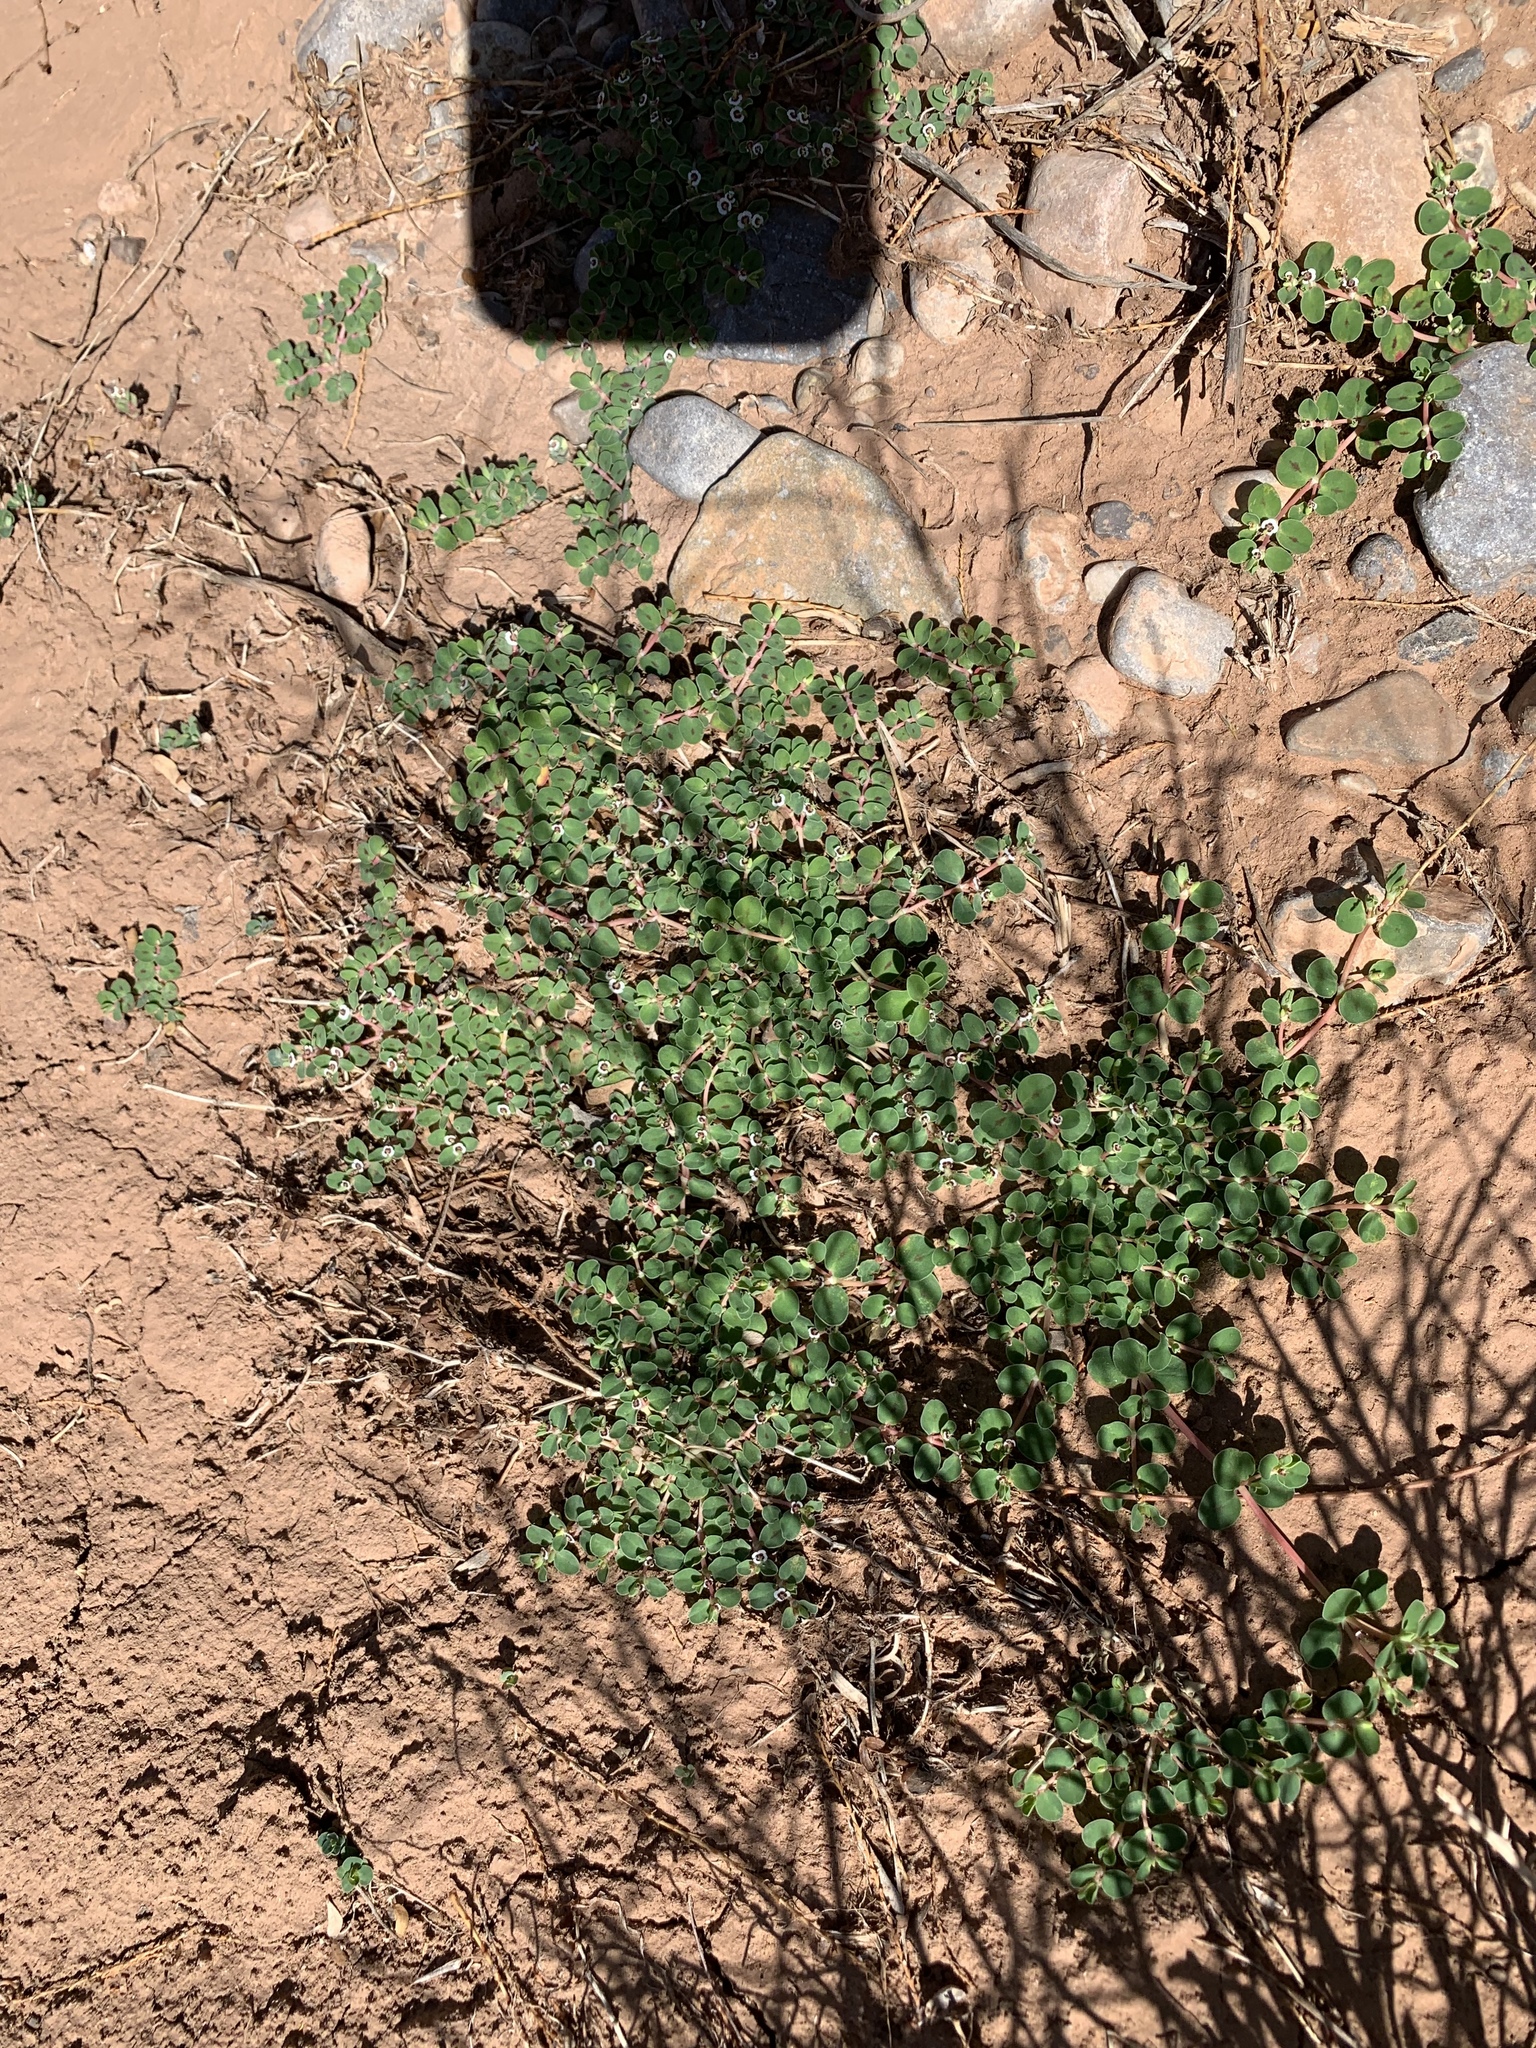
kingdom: Plantae
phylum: Tracheophyta
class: Magnoliopsida
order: Malpighiales
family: Euphorbiaceae
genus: Euphorbia
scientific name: Euphorbia albomarginata
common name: Whitemargin sandmat
